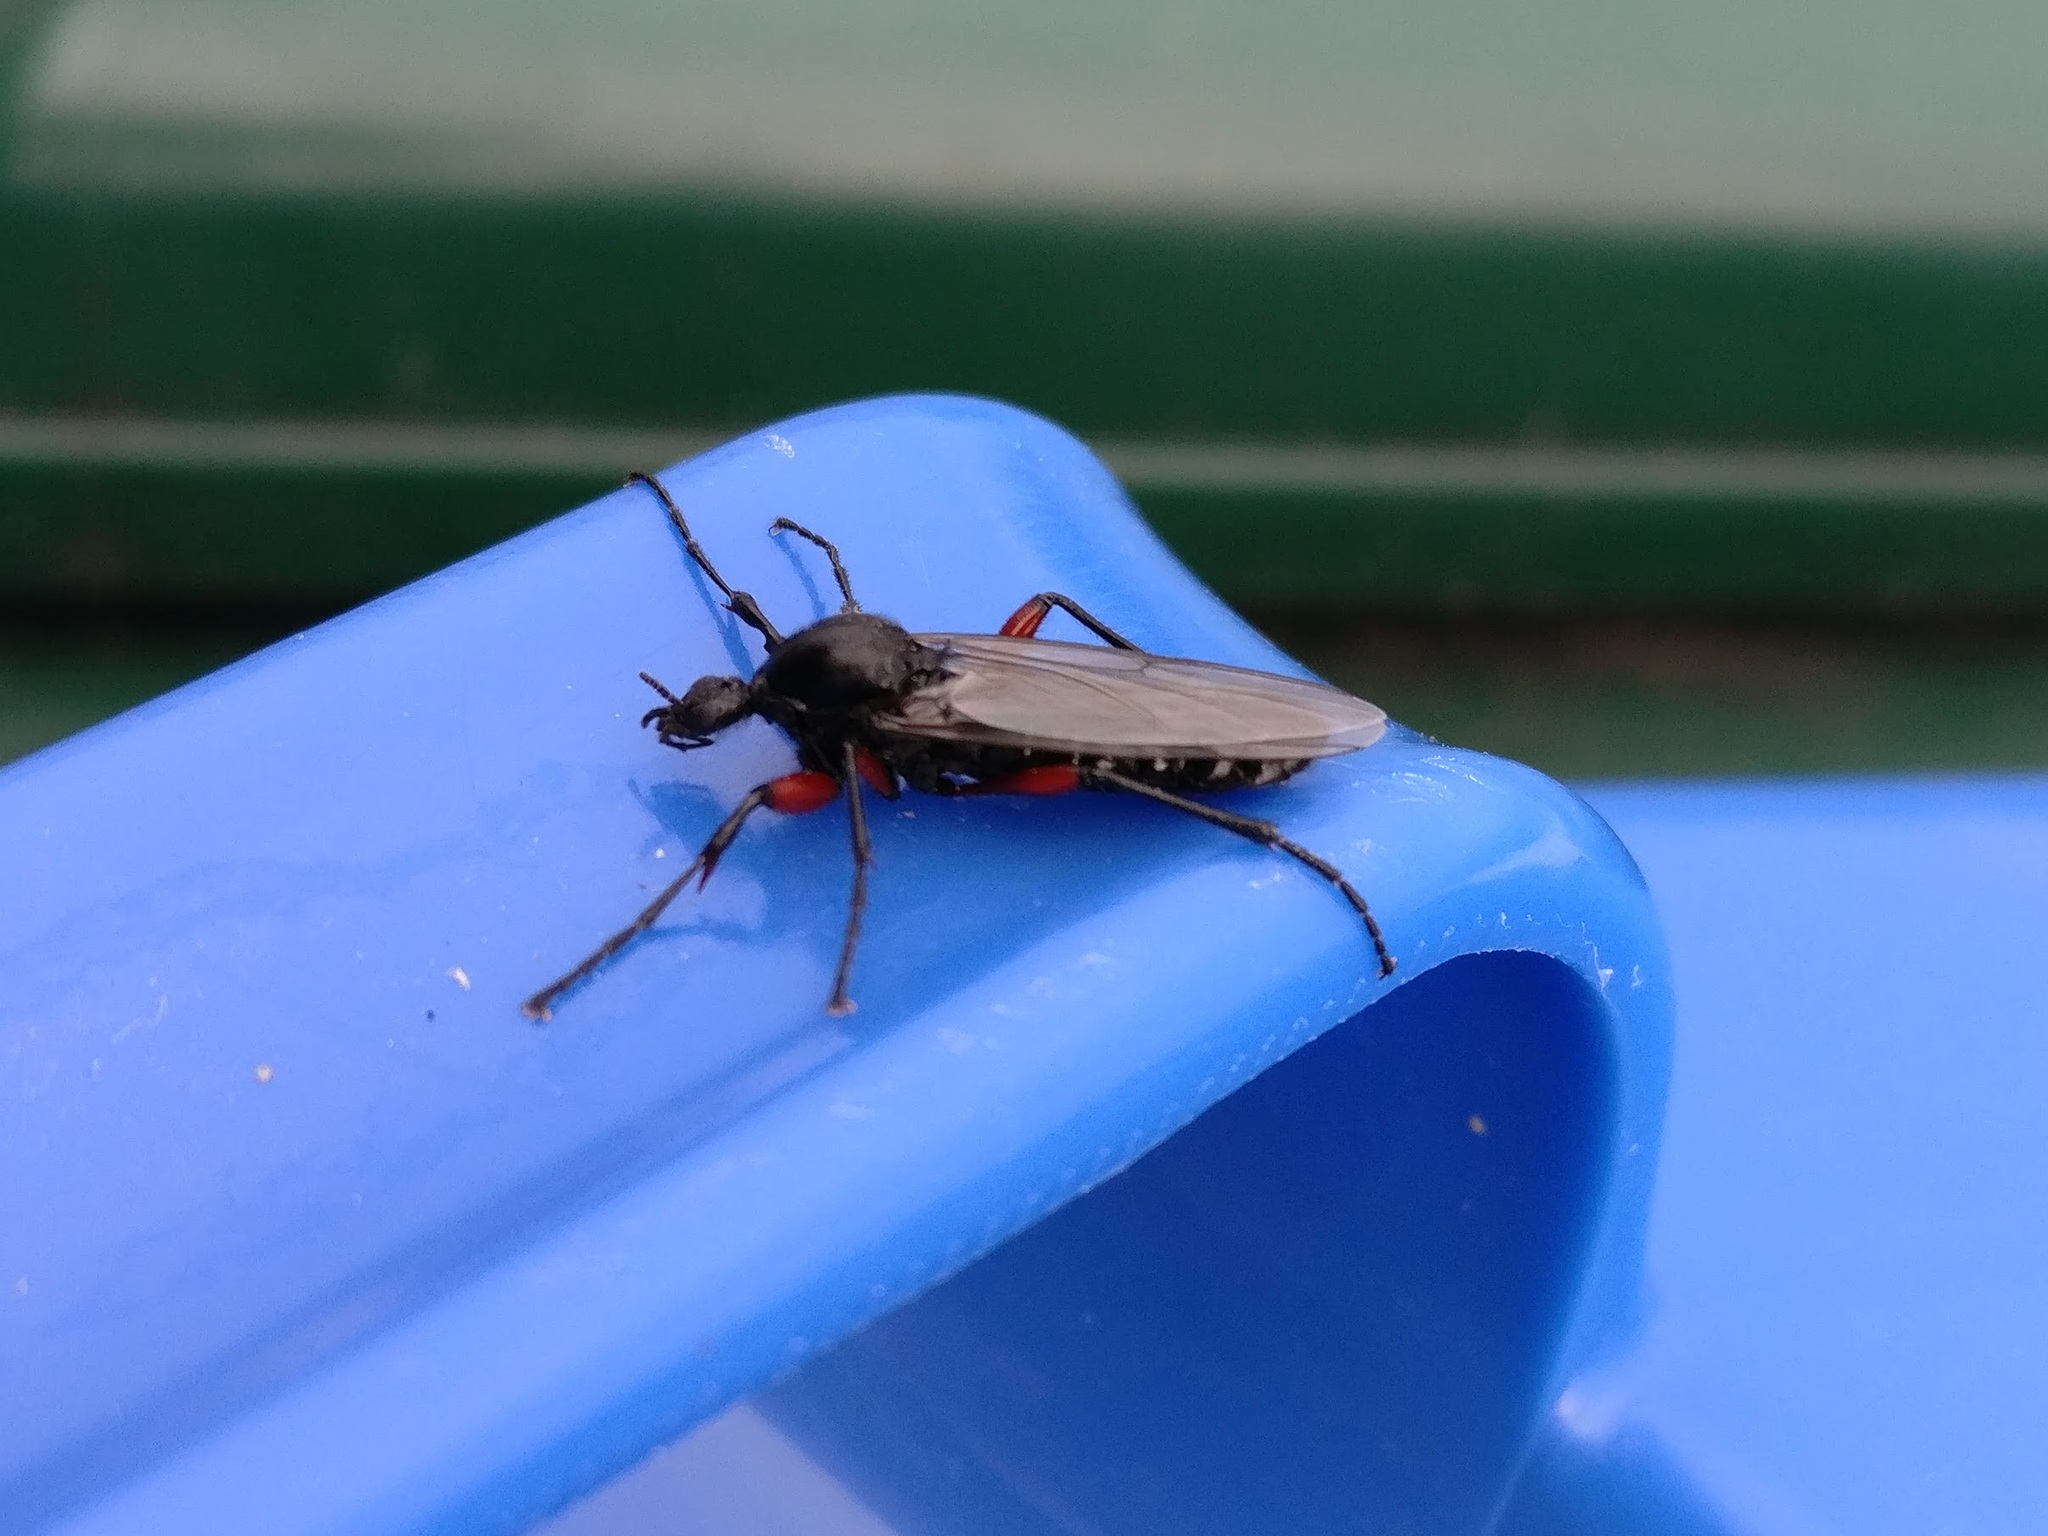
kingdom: Animalia
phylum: Arthropoda
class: Insecta
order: Diptera
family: Bibionidae
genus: Bibio
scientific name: Bibio pomonae
